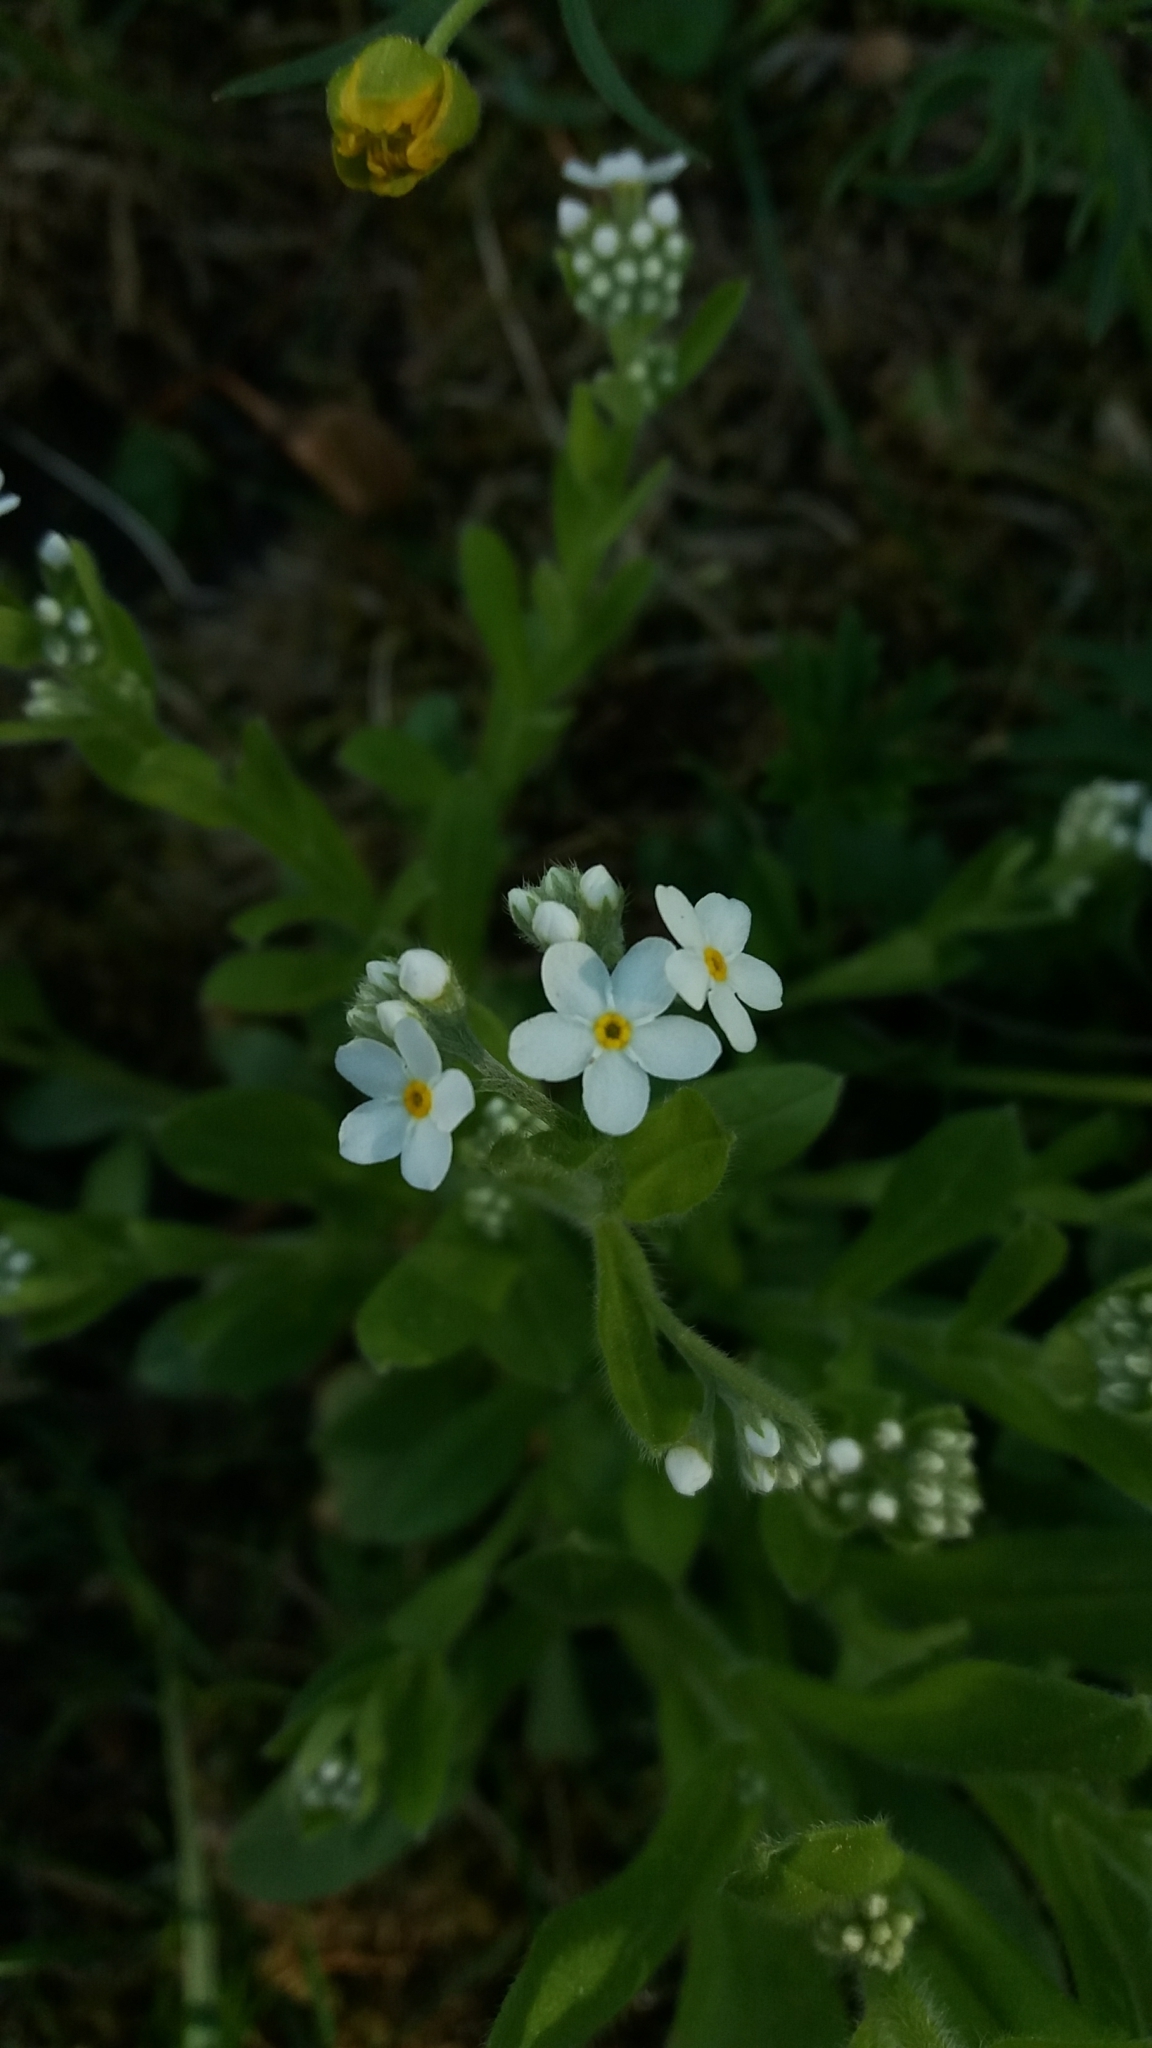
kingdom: Plantae
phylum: Tracheophyta
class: Magnoliopsida
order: Boraginales
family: Boraginaceae
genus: Myosotis
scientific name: Myosotis
